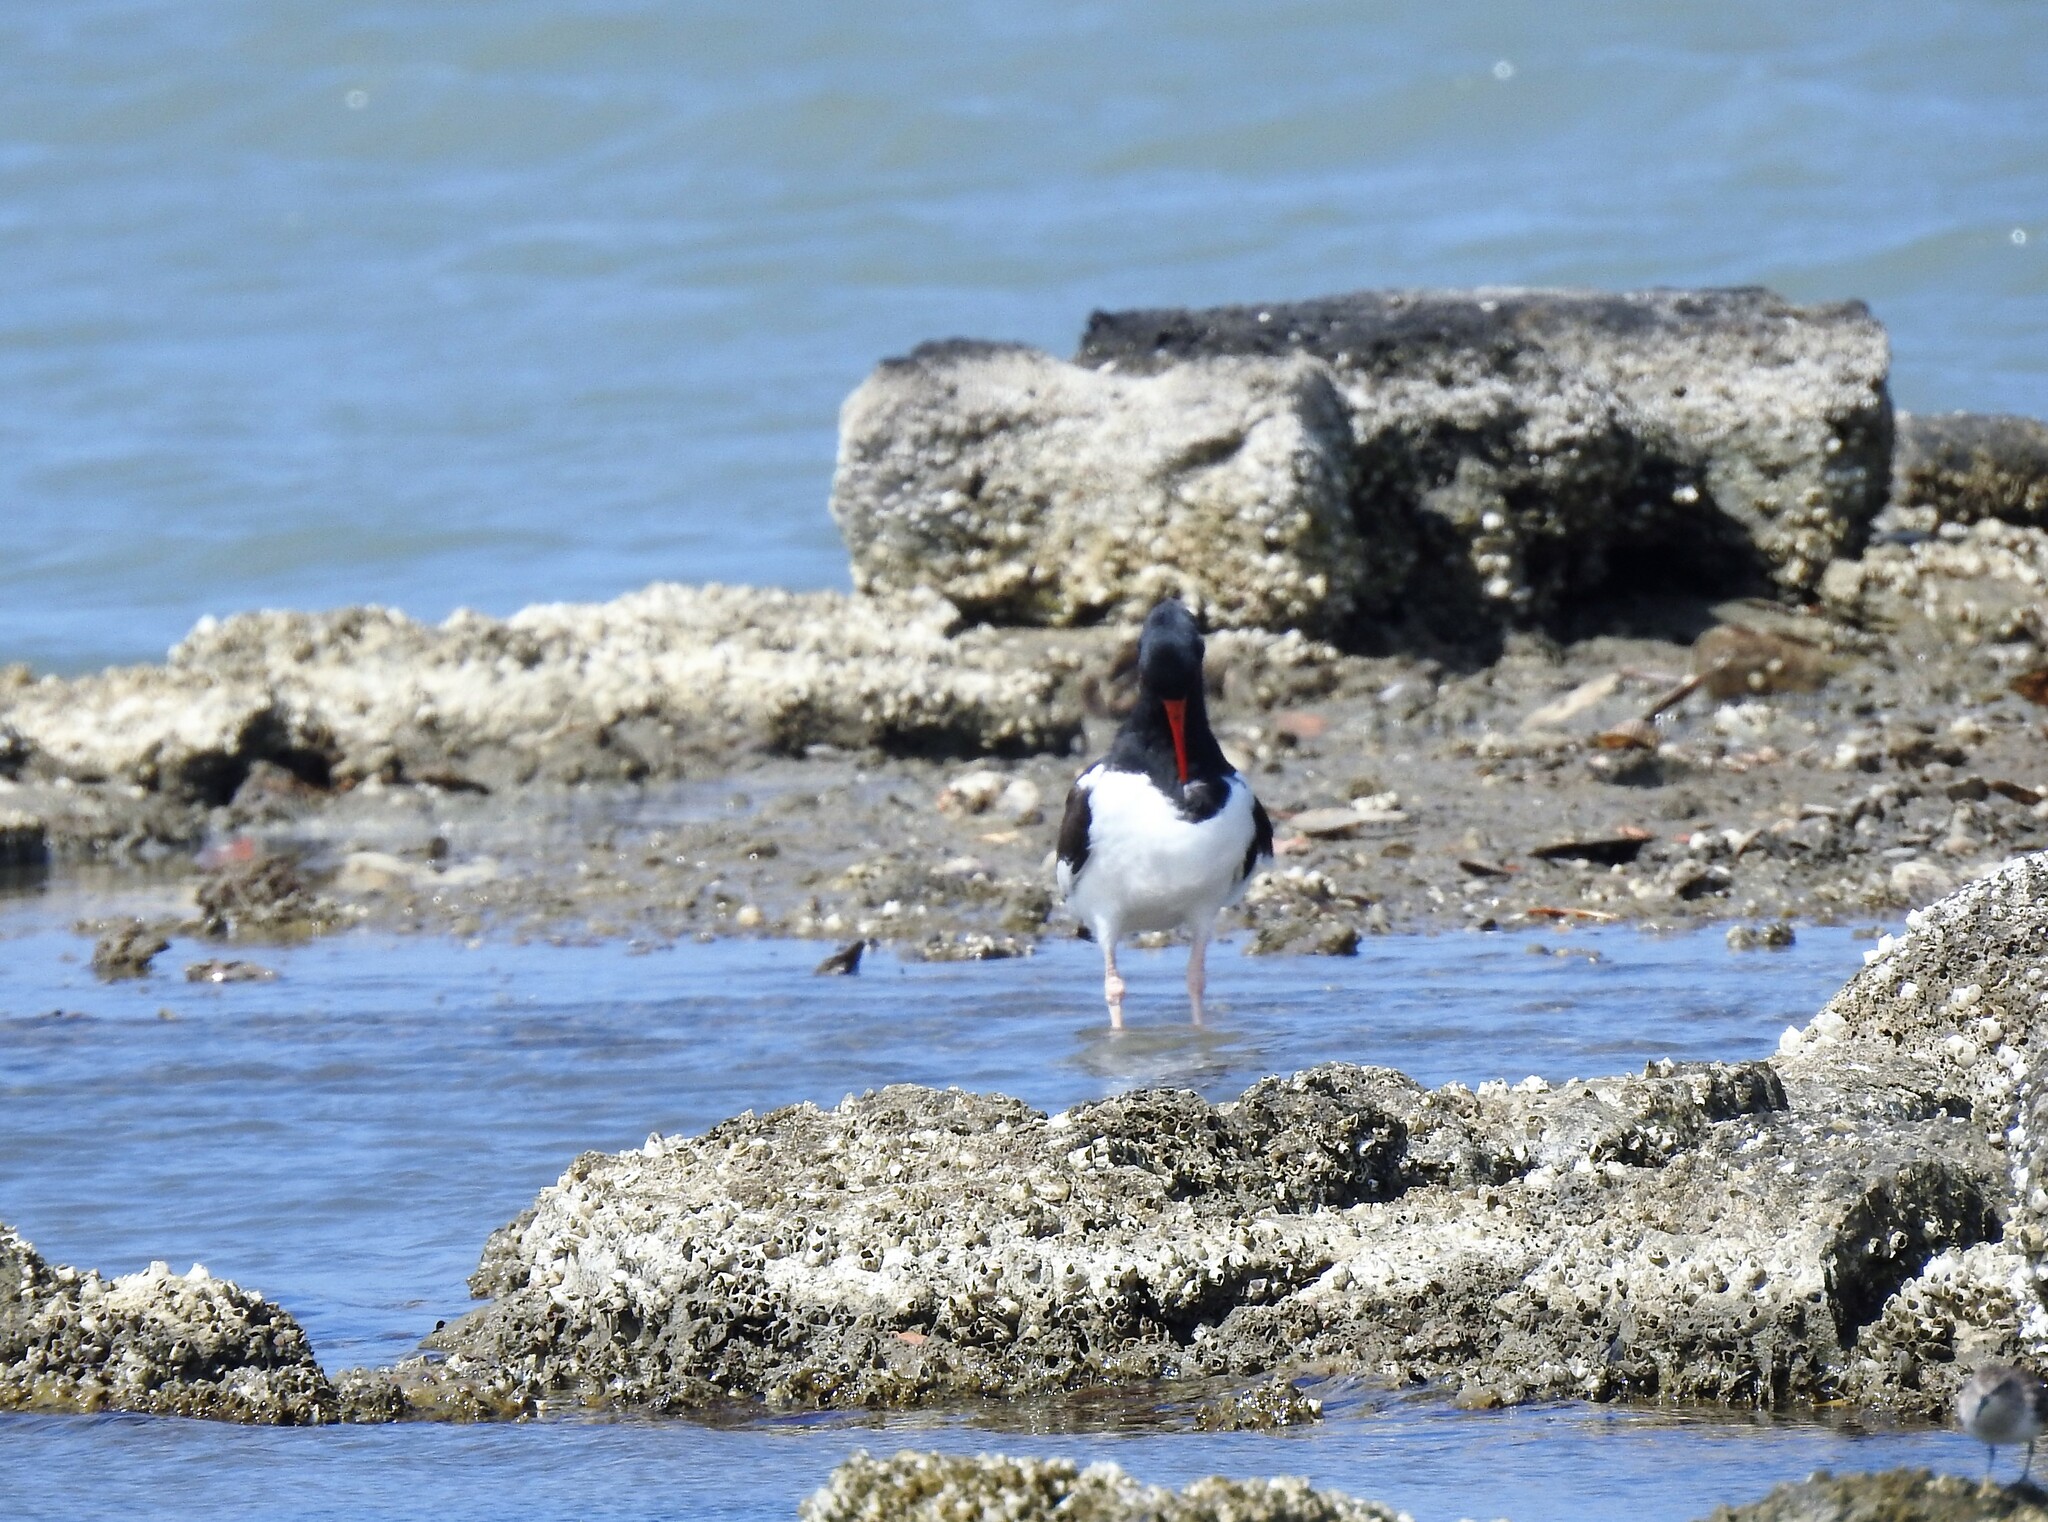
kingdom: Animalia
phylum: Chordata
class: Aves
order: Charadriiformes
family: Haematopodidae
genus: Haematopus
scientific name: Haematopus palliatus
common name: American oystercatcher
